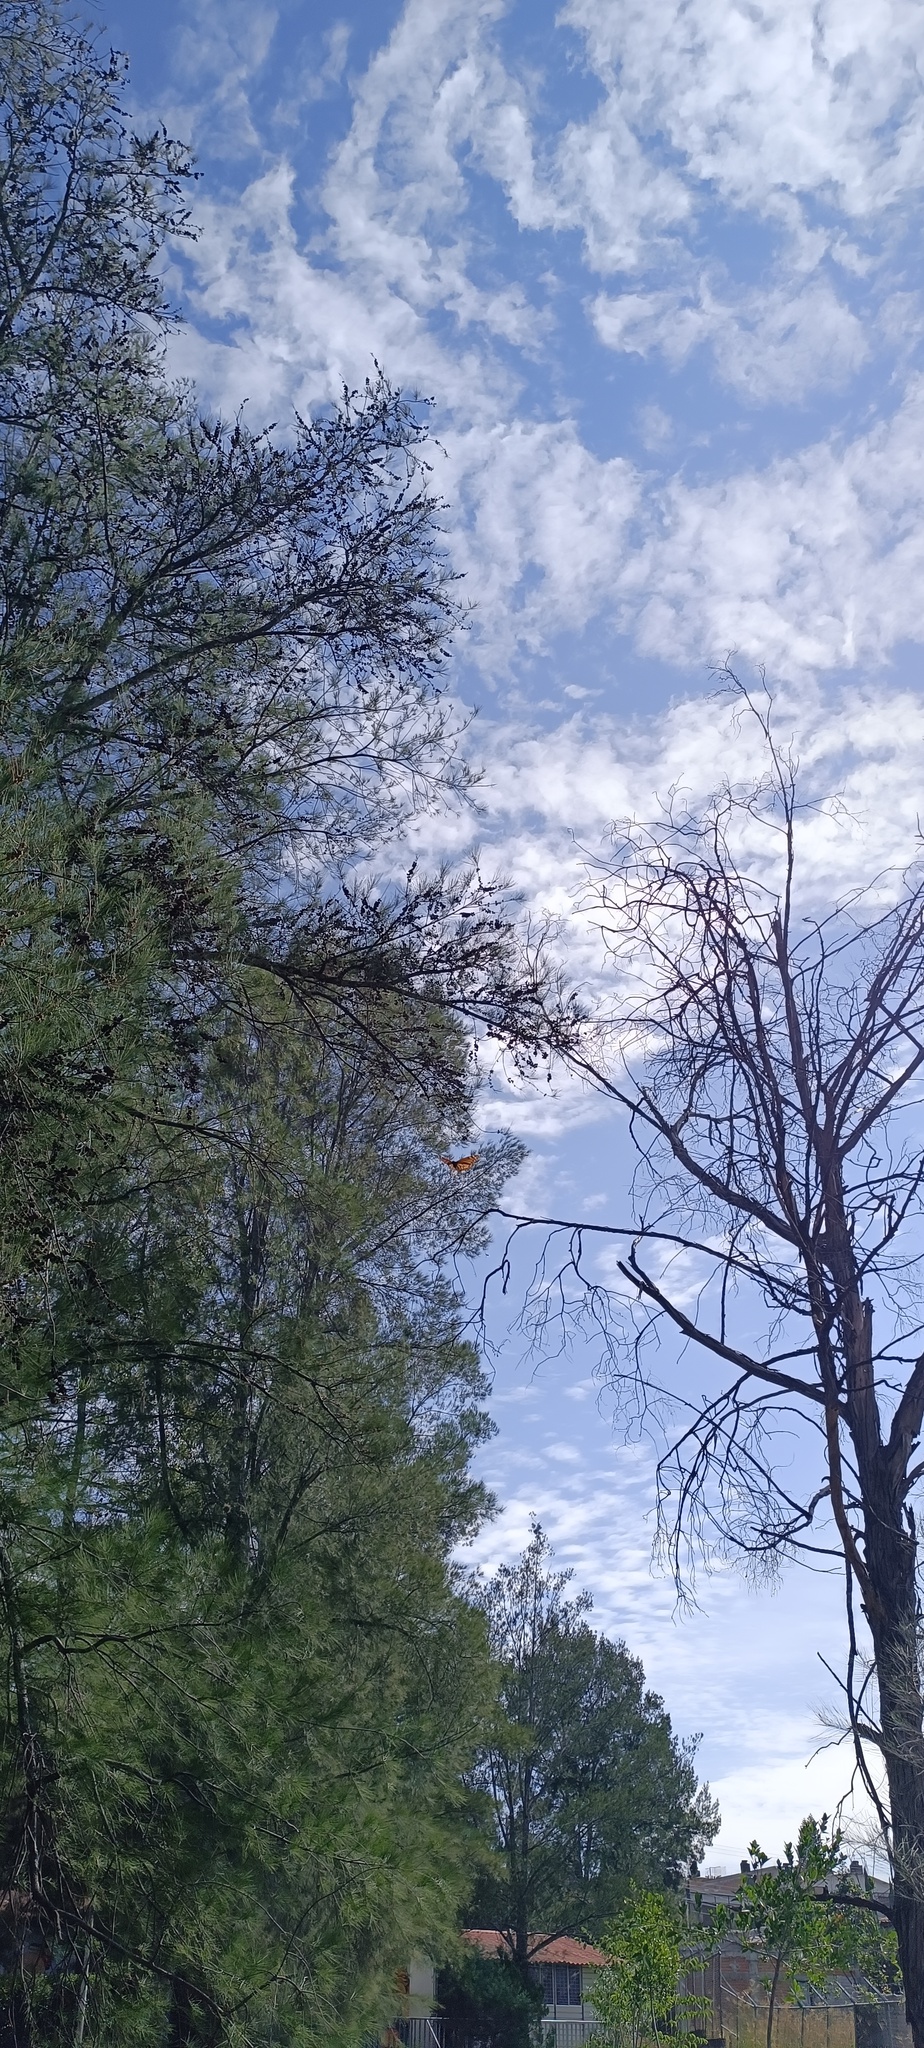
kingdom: Animalia
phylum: Arthropoda
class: Insecta
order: Lepidoptera
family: Nymphalidae
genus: Danaus
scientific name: Danaus plexippus
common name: Monarch
